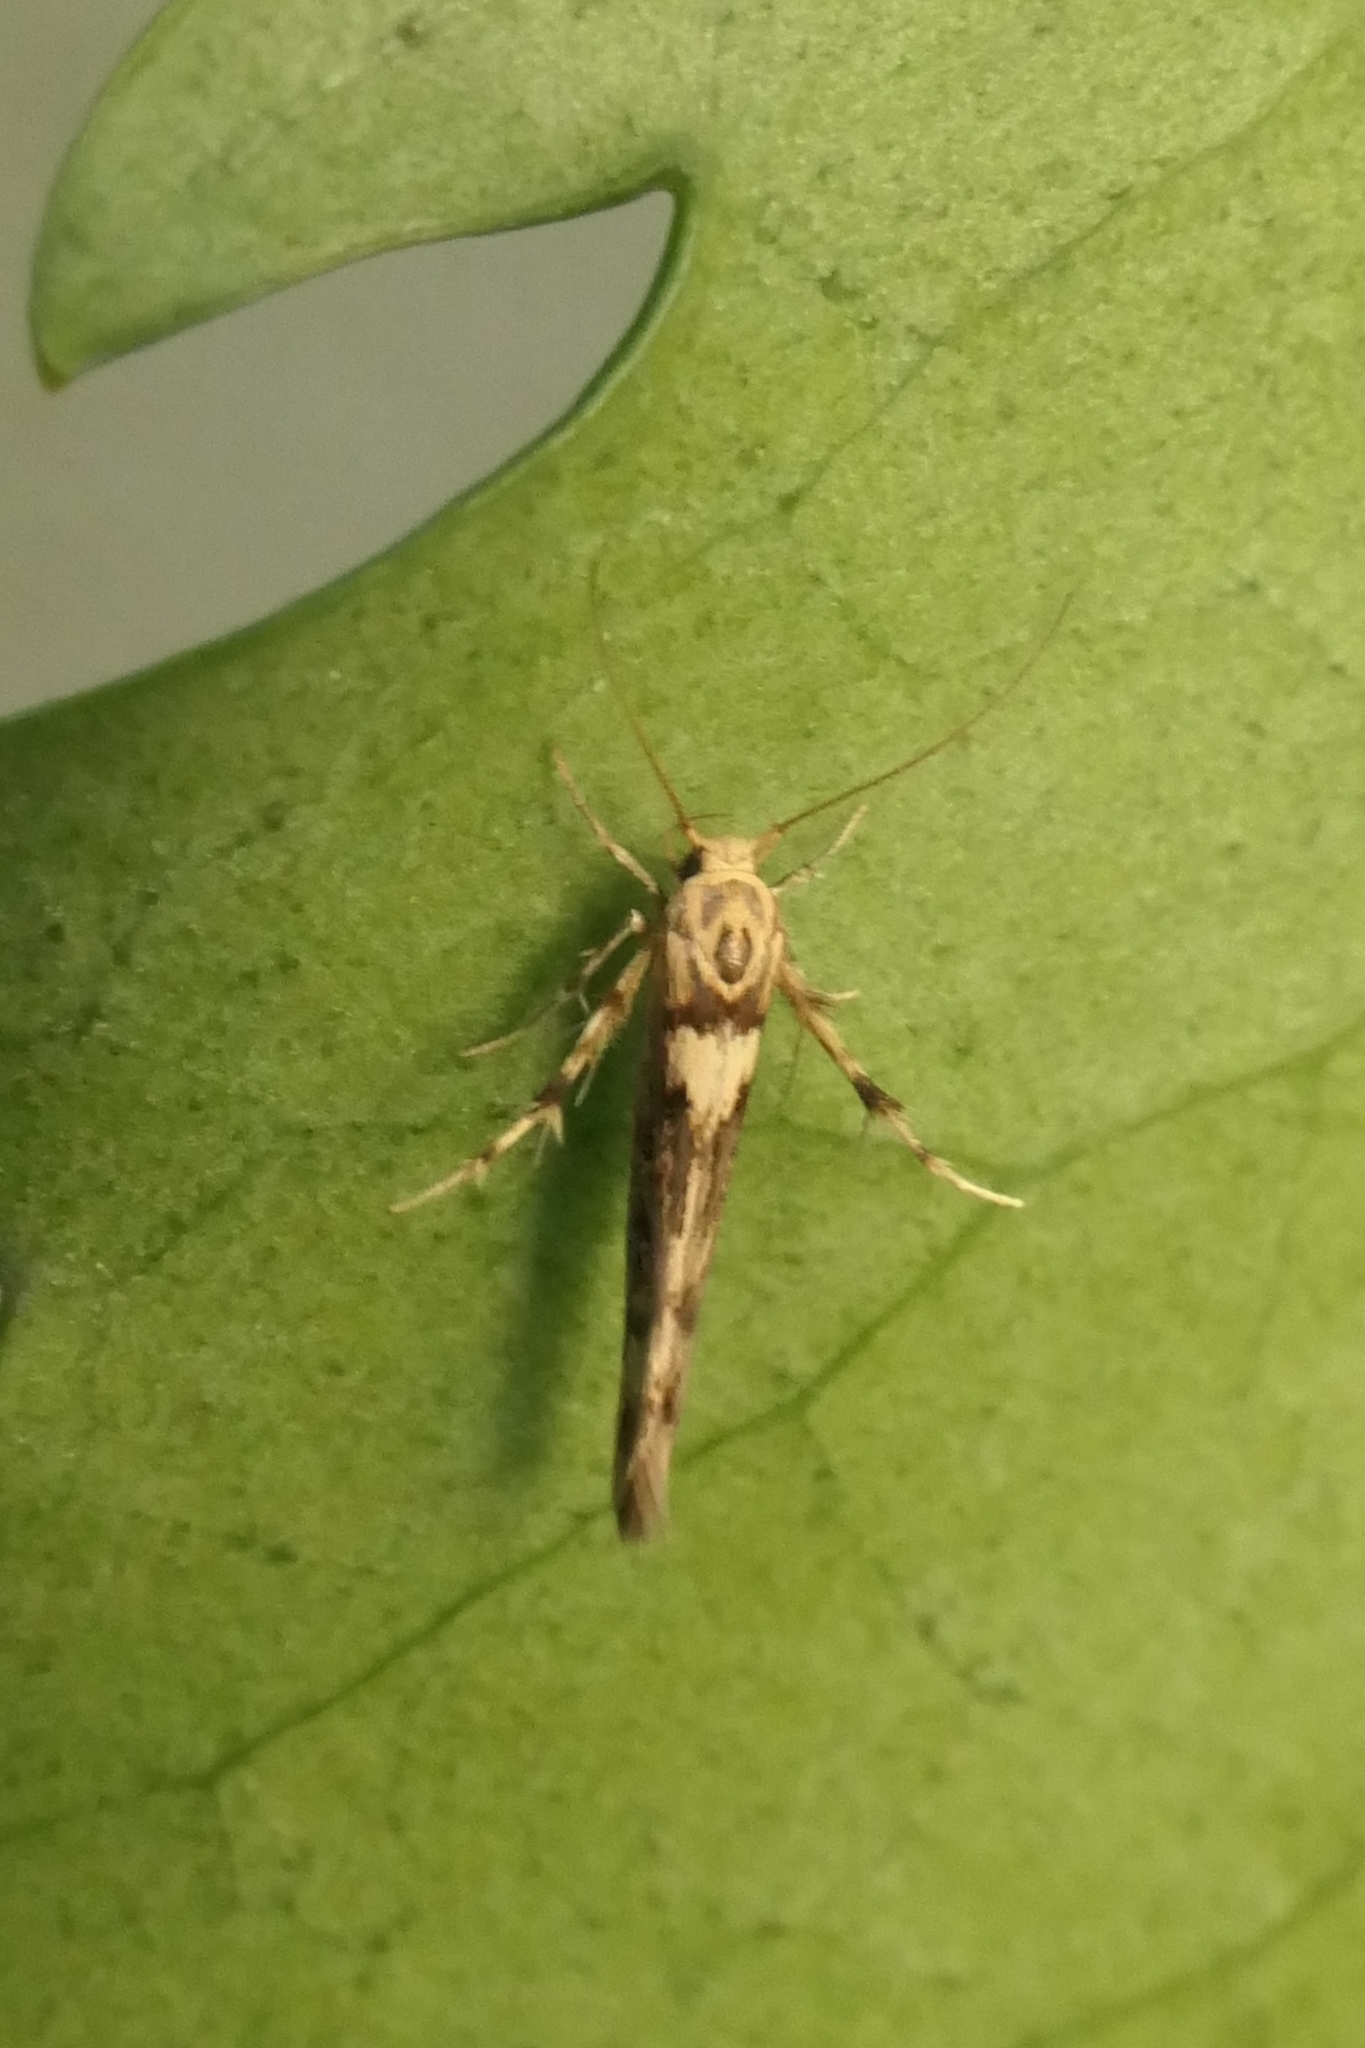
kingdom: Animalia
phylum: Arthropoda
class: Insecta
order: Lepidoptera
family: Stathmopodidae
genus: Stathmopoda
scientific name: Stathmopoda plumbiflua
